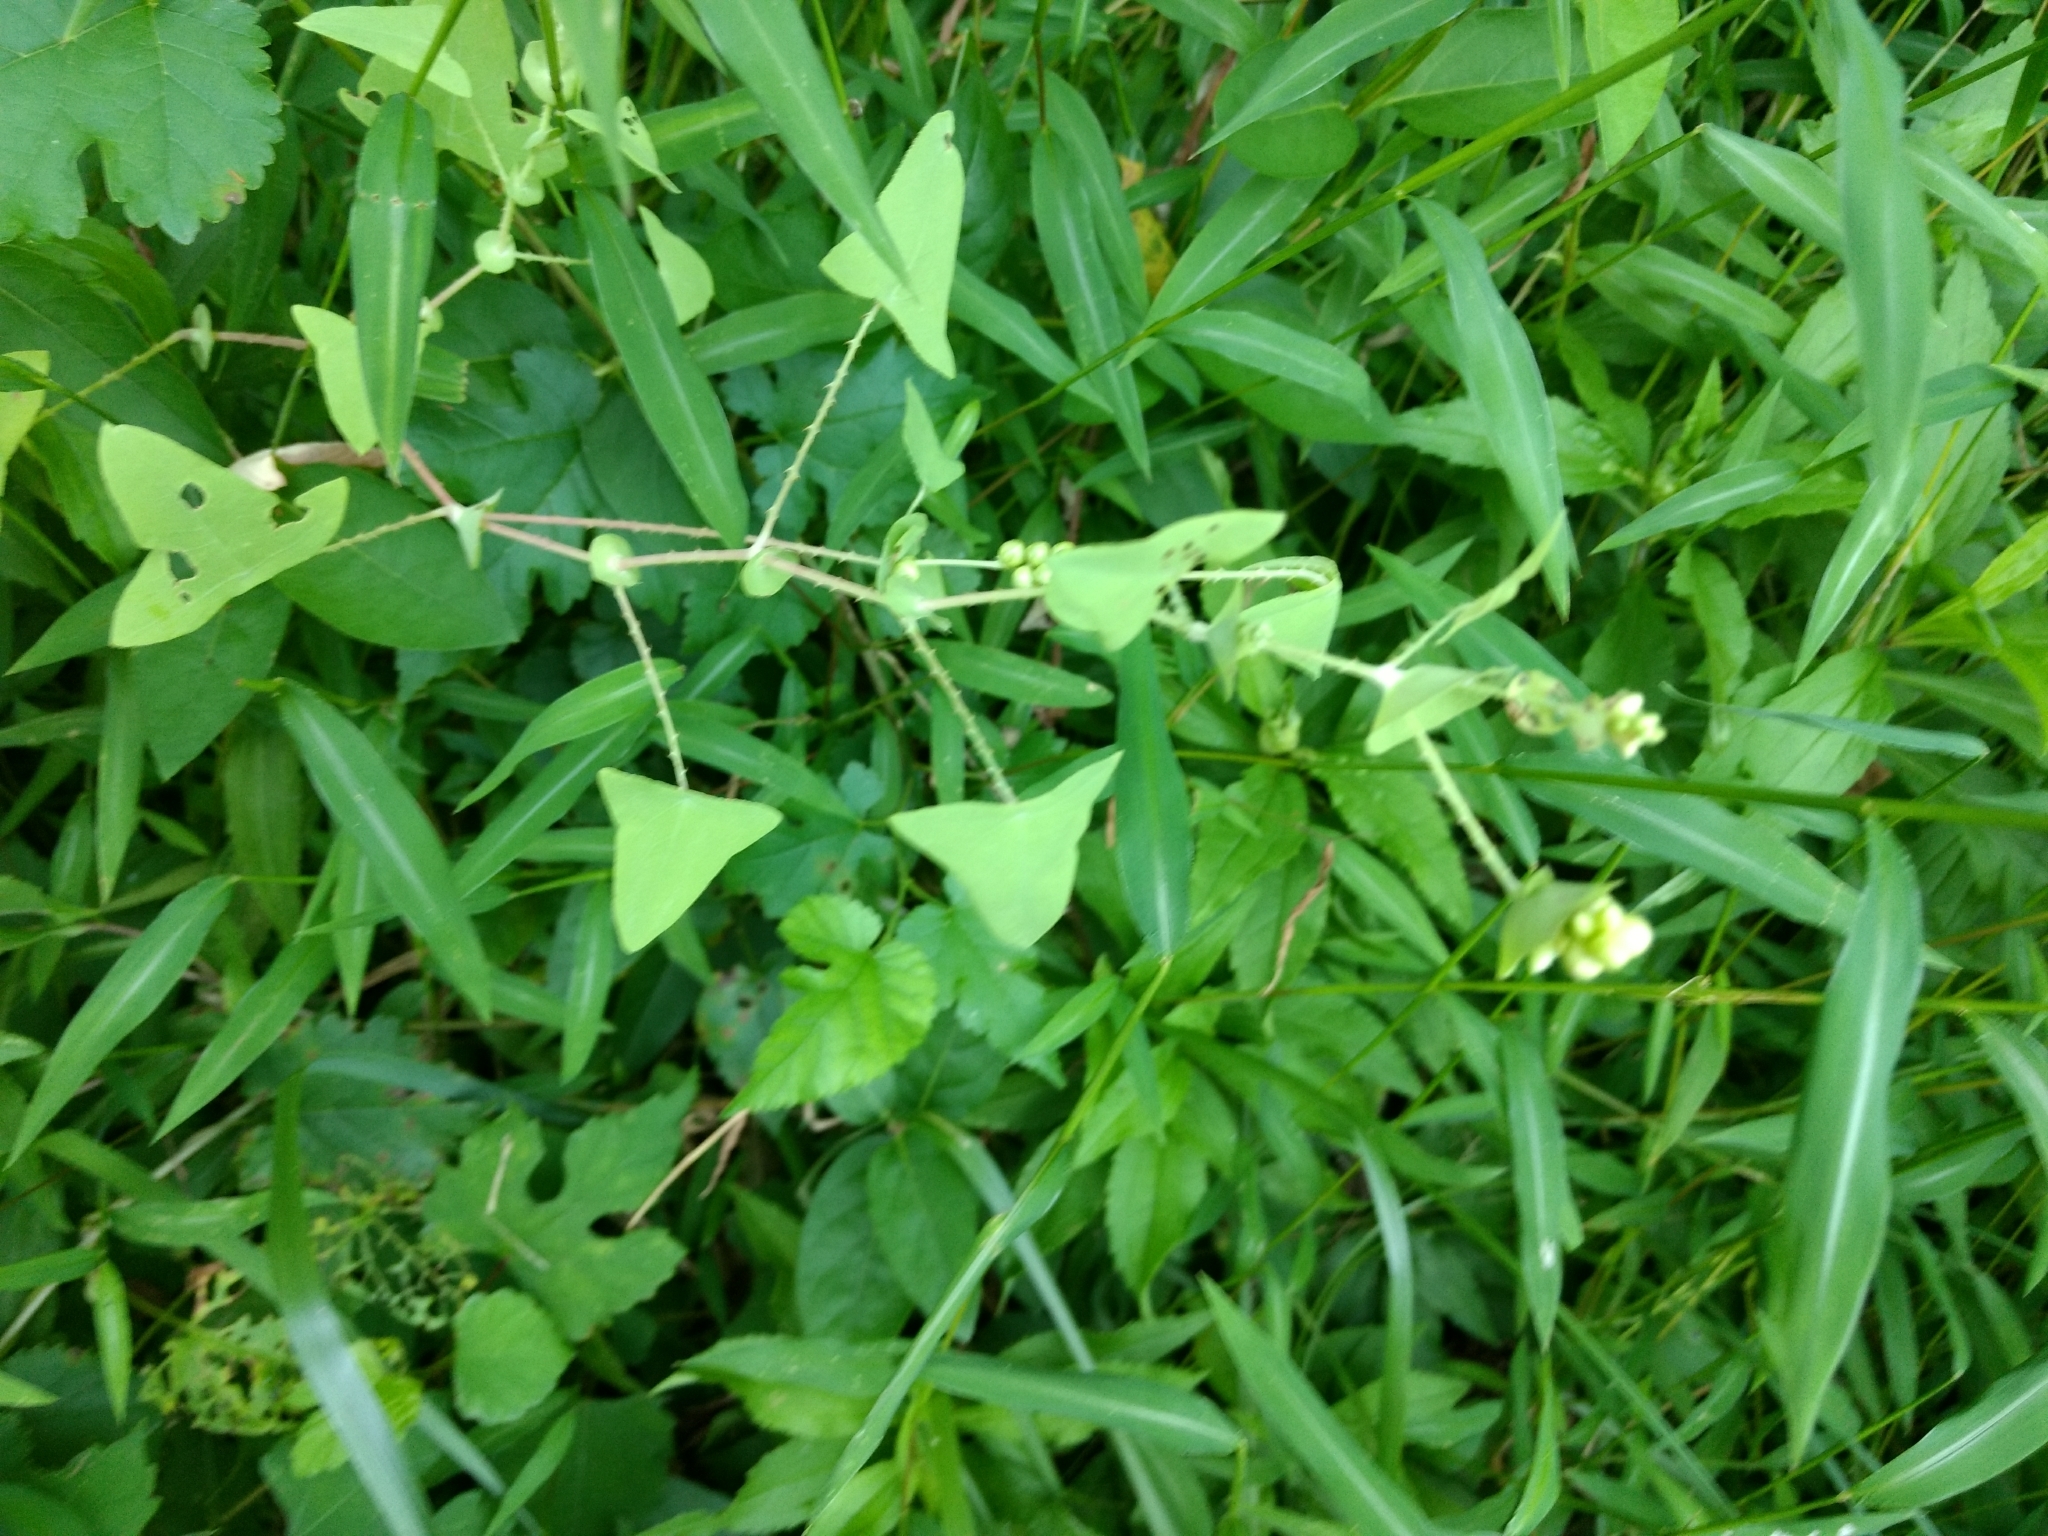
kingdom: Plantae
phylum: Tracheophyta
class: Magnoliopsida
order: Caryophyllales
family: Polygonaceae
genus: Persicaria
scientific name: Persicaria perfoliata
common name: Asiatic tearthumb
